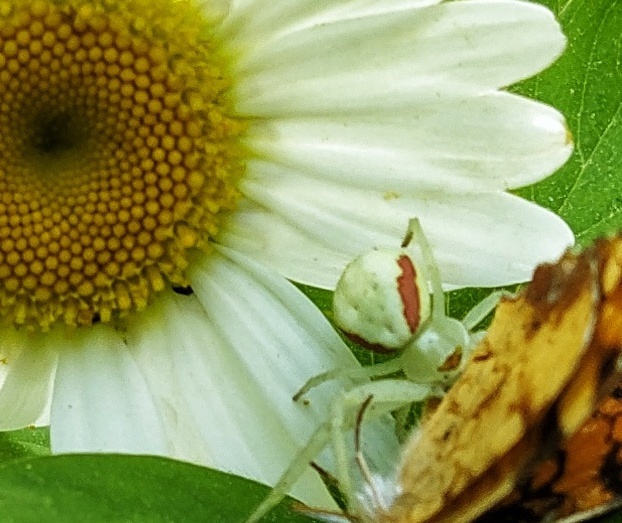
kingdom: Animalia
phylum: Arthropoda
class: Arachnida
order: Araneae
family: Thomisidae
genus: Misumena
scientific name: Misumena vatia
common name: Goldenrod crab spider
